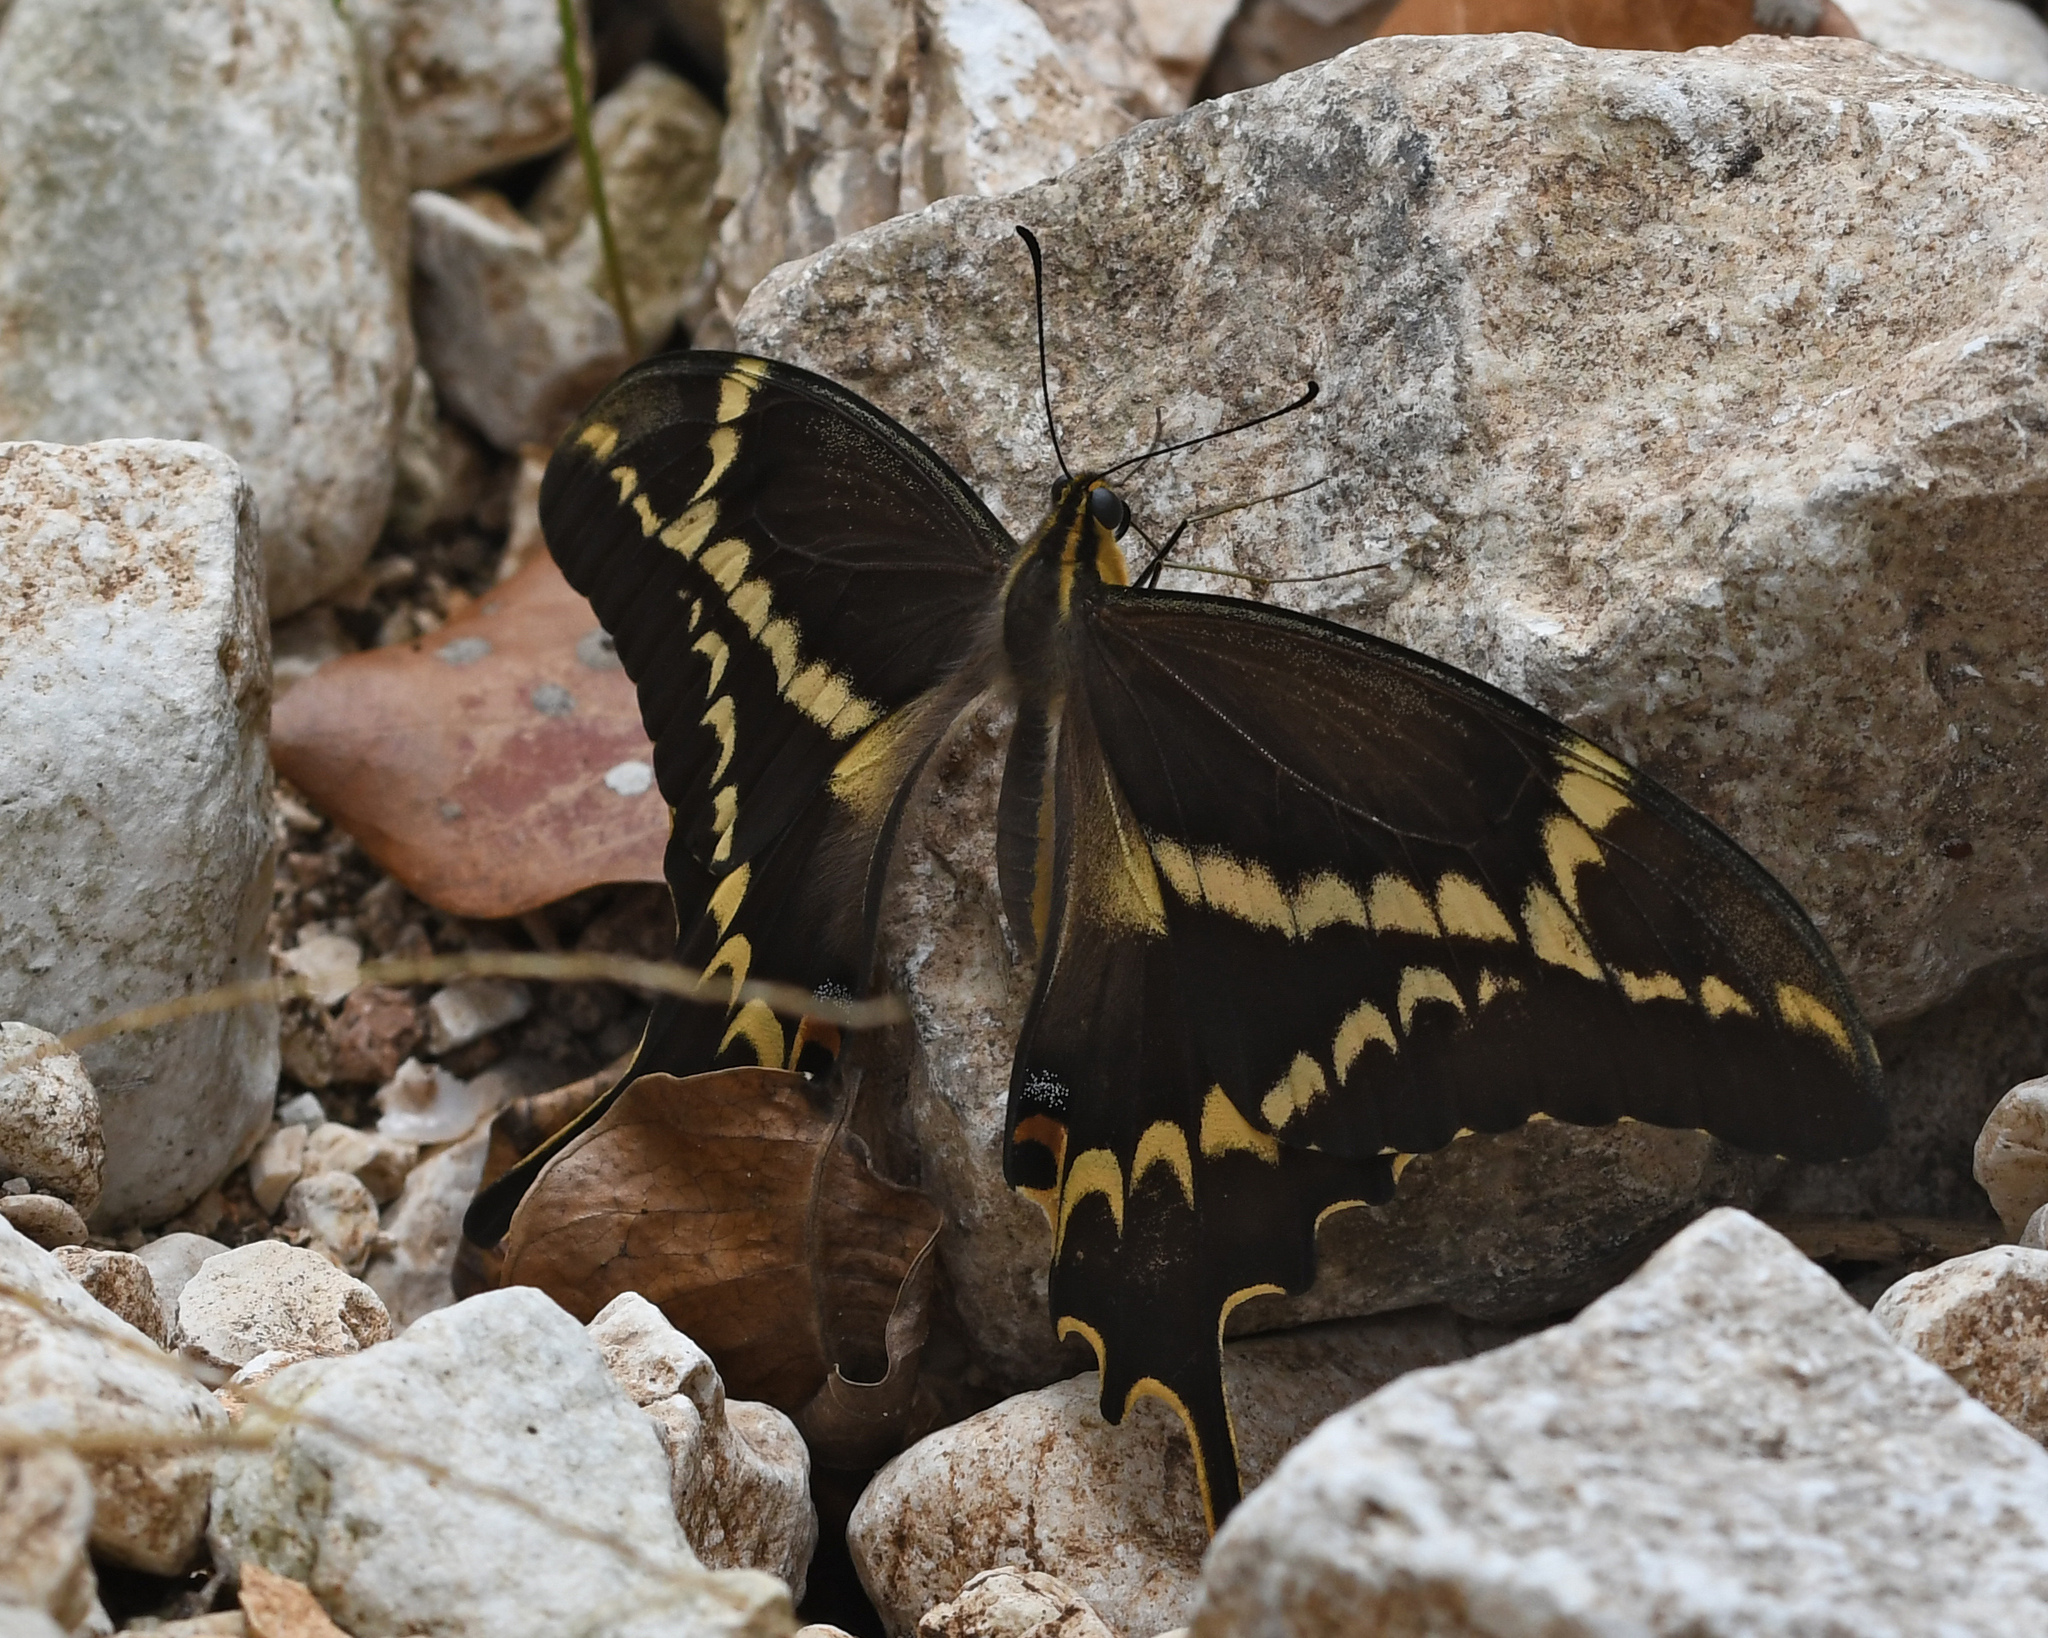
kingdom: Animalia
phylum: Arthropoda
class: Insecta
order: Lepidoptera
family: Papilionidae
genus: Papilio
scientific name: Papilio aristodemus
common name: Schaus' swallowtail
